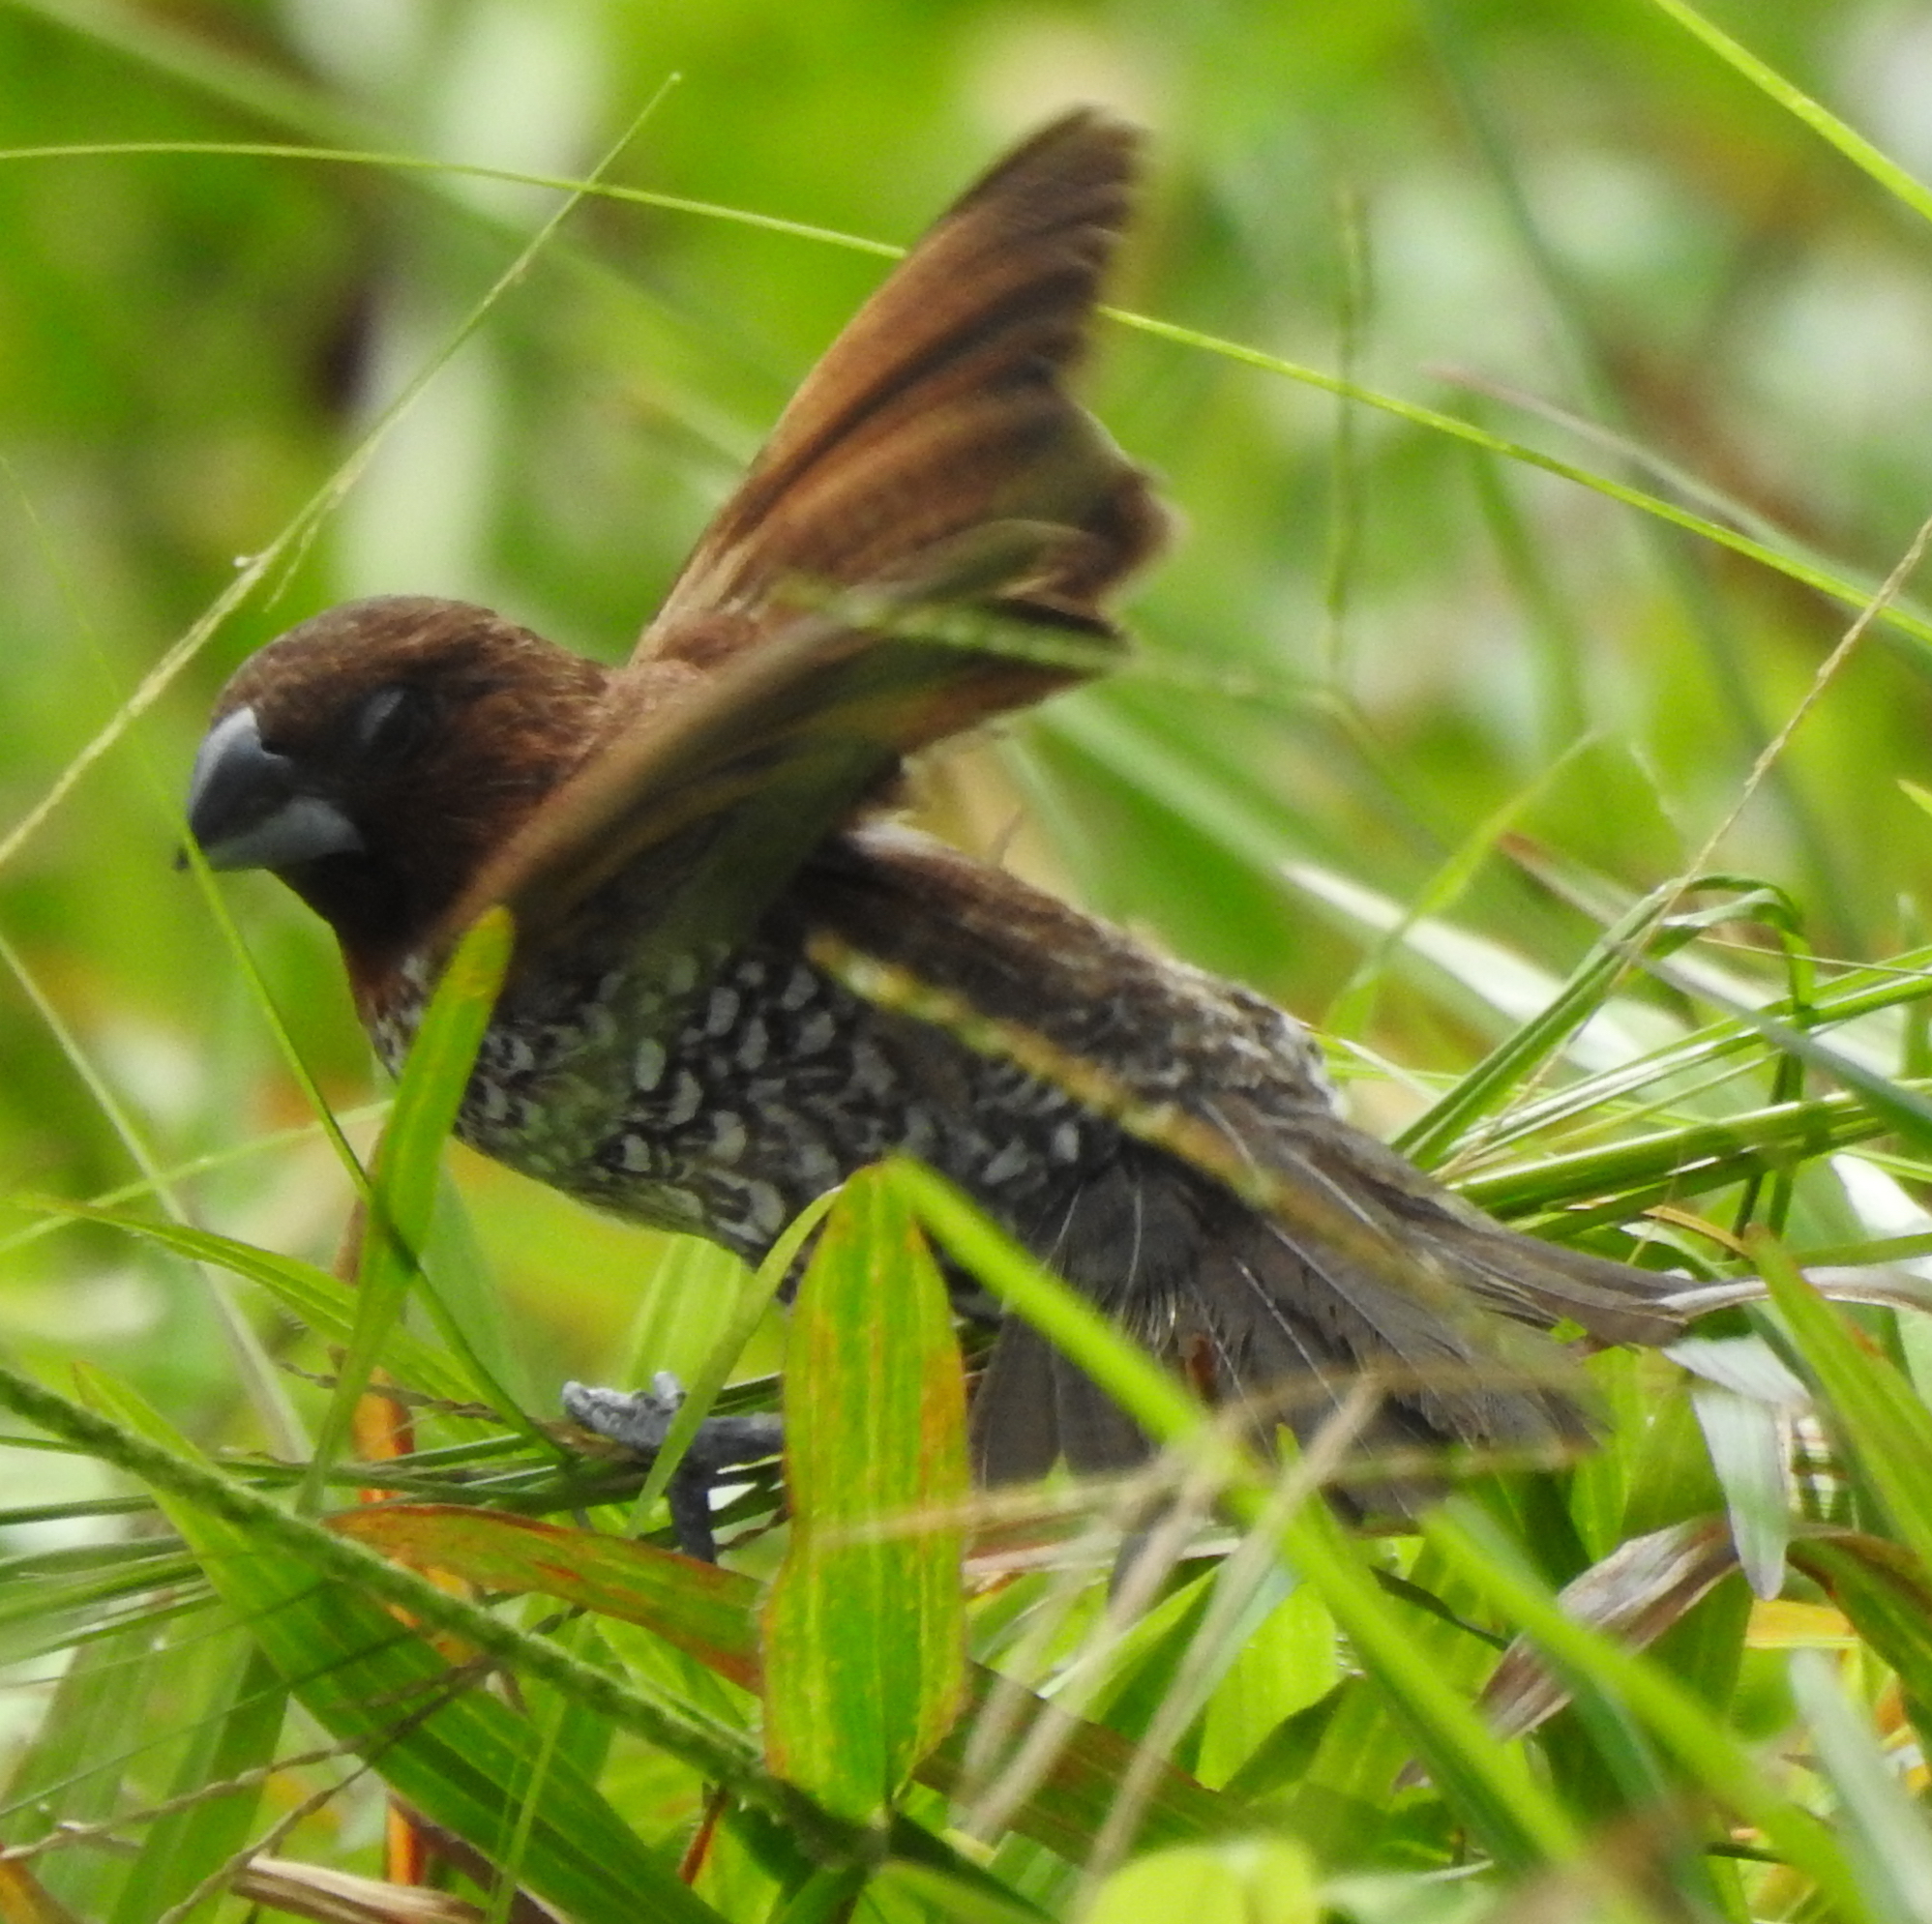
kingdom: Animalia
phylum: Chordata
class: Aves
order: Passeriformes
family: Estrildidae
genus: Lonchura
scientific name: Lonchura punctulata
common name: Scaly-breasted munia
